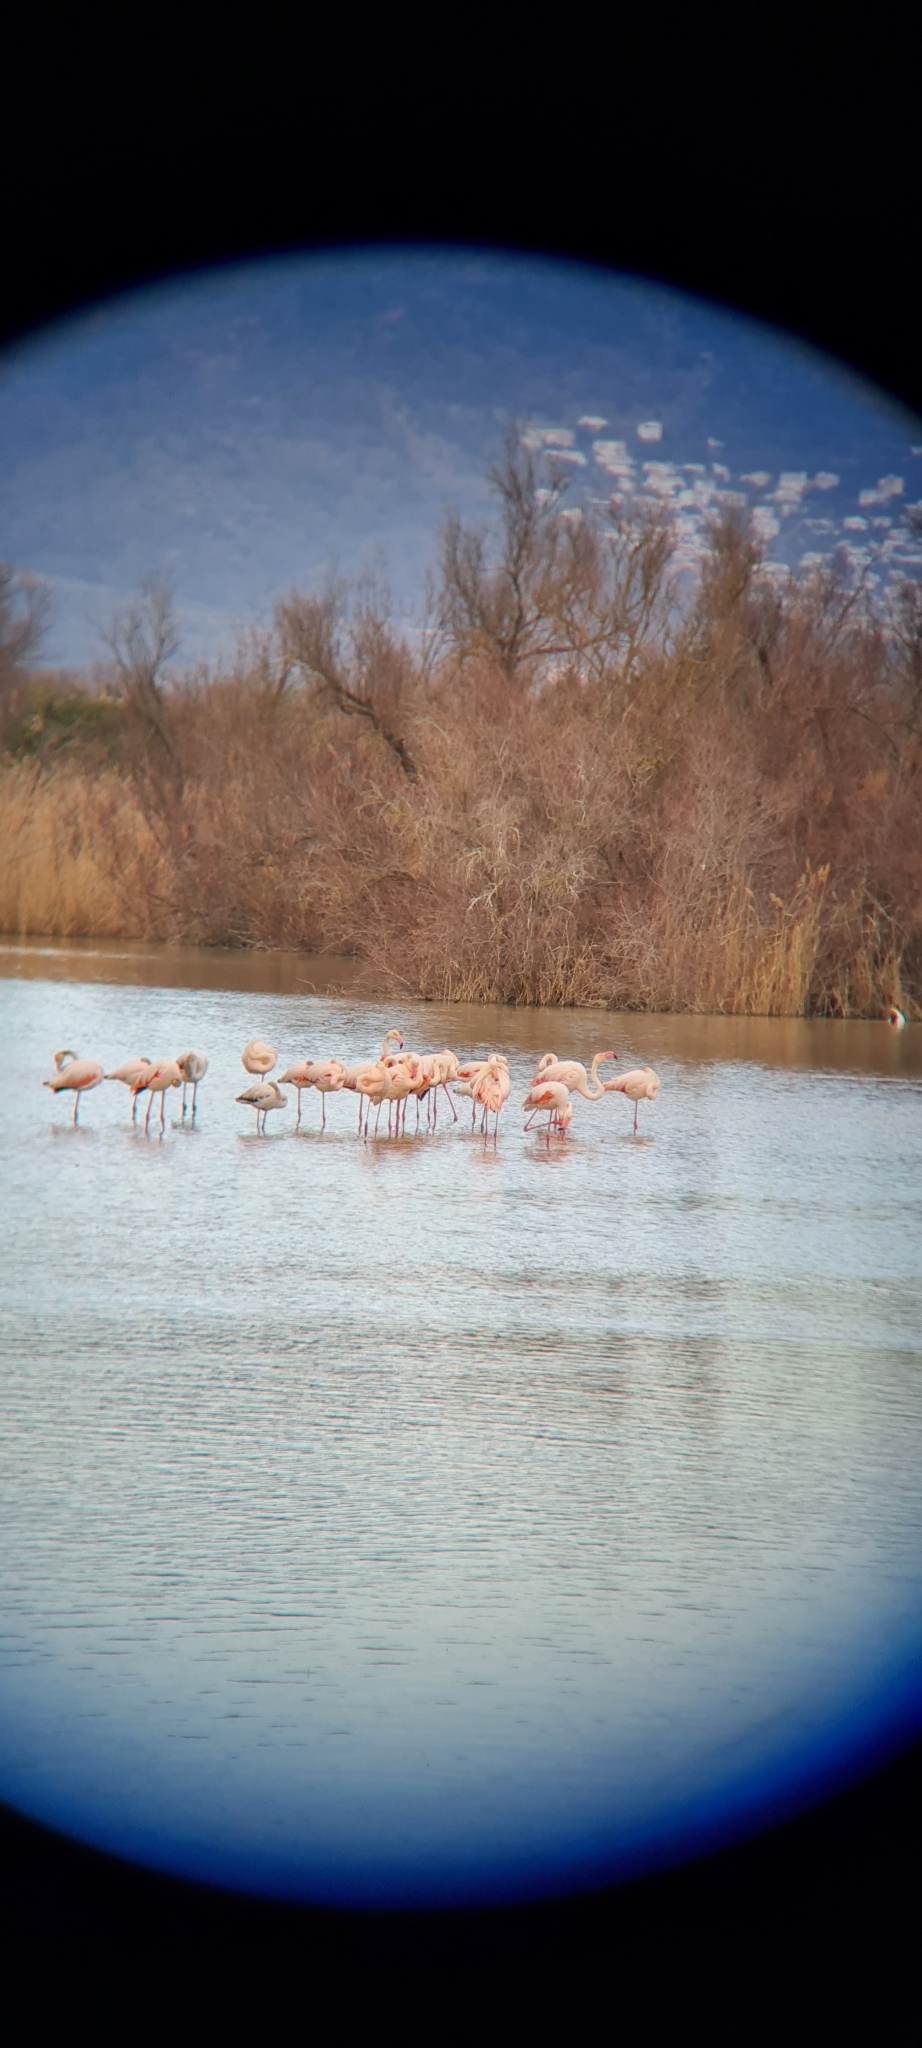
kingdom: Animalia
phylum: Chordata
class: Aves
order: Phoenicopteriformes
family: Phoenicopteridae
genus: Phoenicopterus
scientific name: Phoenicopterus roseus
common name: Greater flamingo
